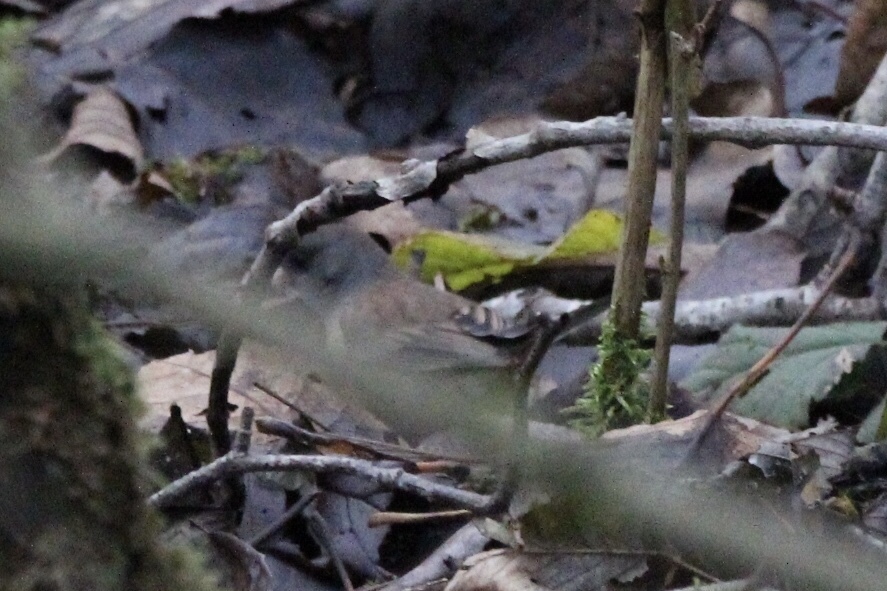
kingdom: Animalia
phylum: Chordata
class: Aves
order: Passeriformes
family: Passerellidae
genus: Junco
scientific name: Junco hyemalis
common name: Dark-eyed junco
